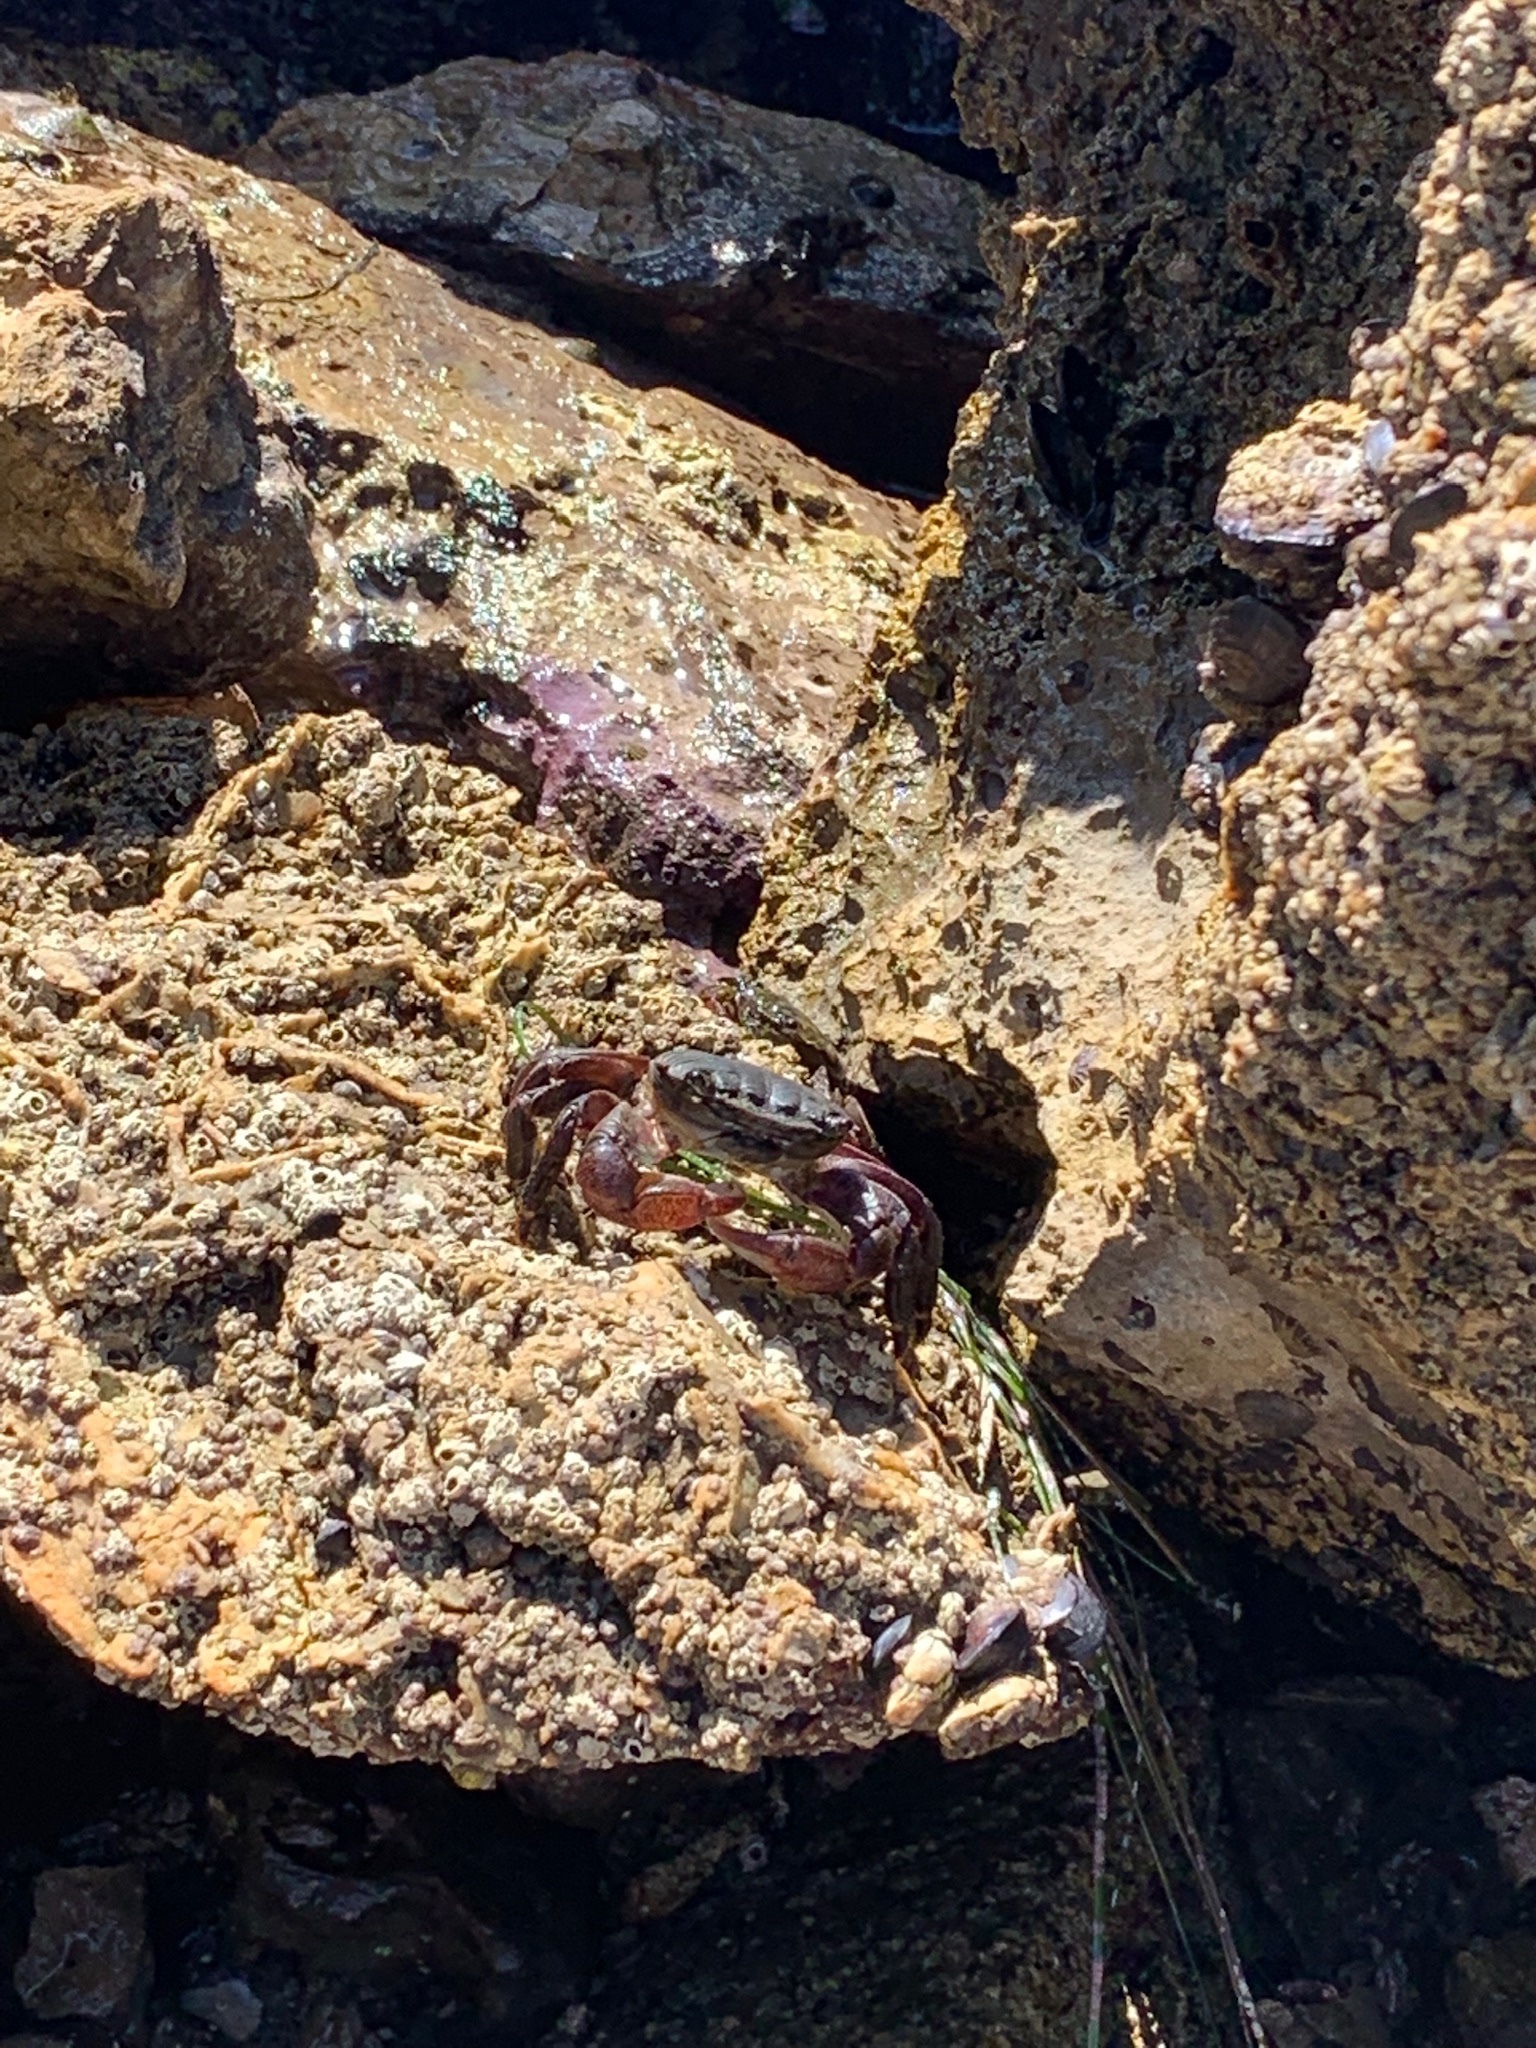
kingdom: Animalia
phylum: Arthropoda
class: Malacostraca
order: Decapoda
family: Grapsidae
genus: Pachygrapsus
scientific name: Pachygrapsus crassipes
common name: Striped shore crab
